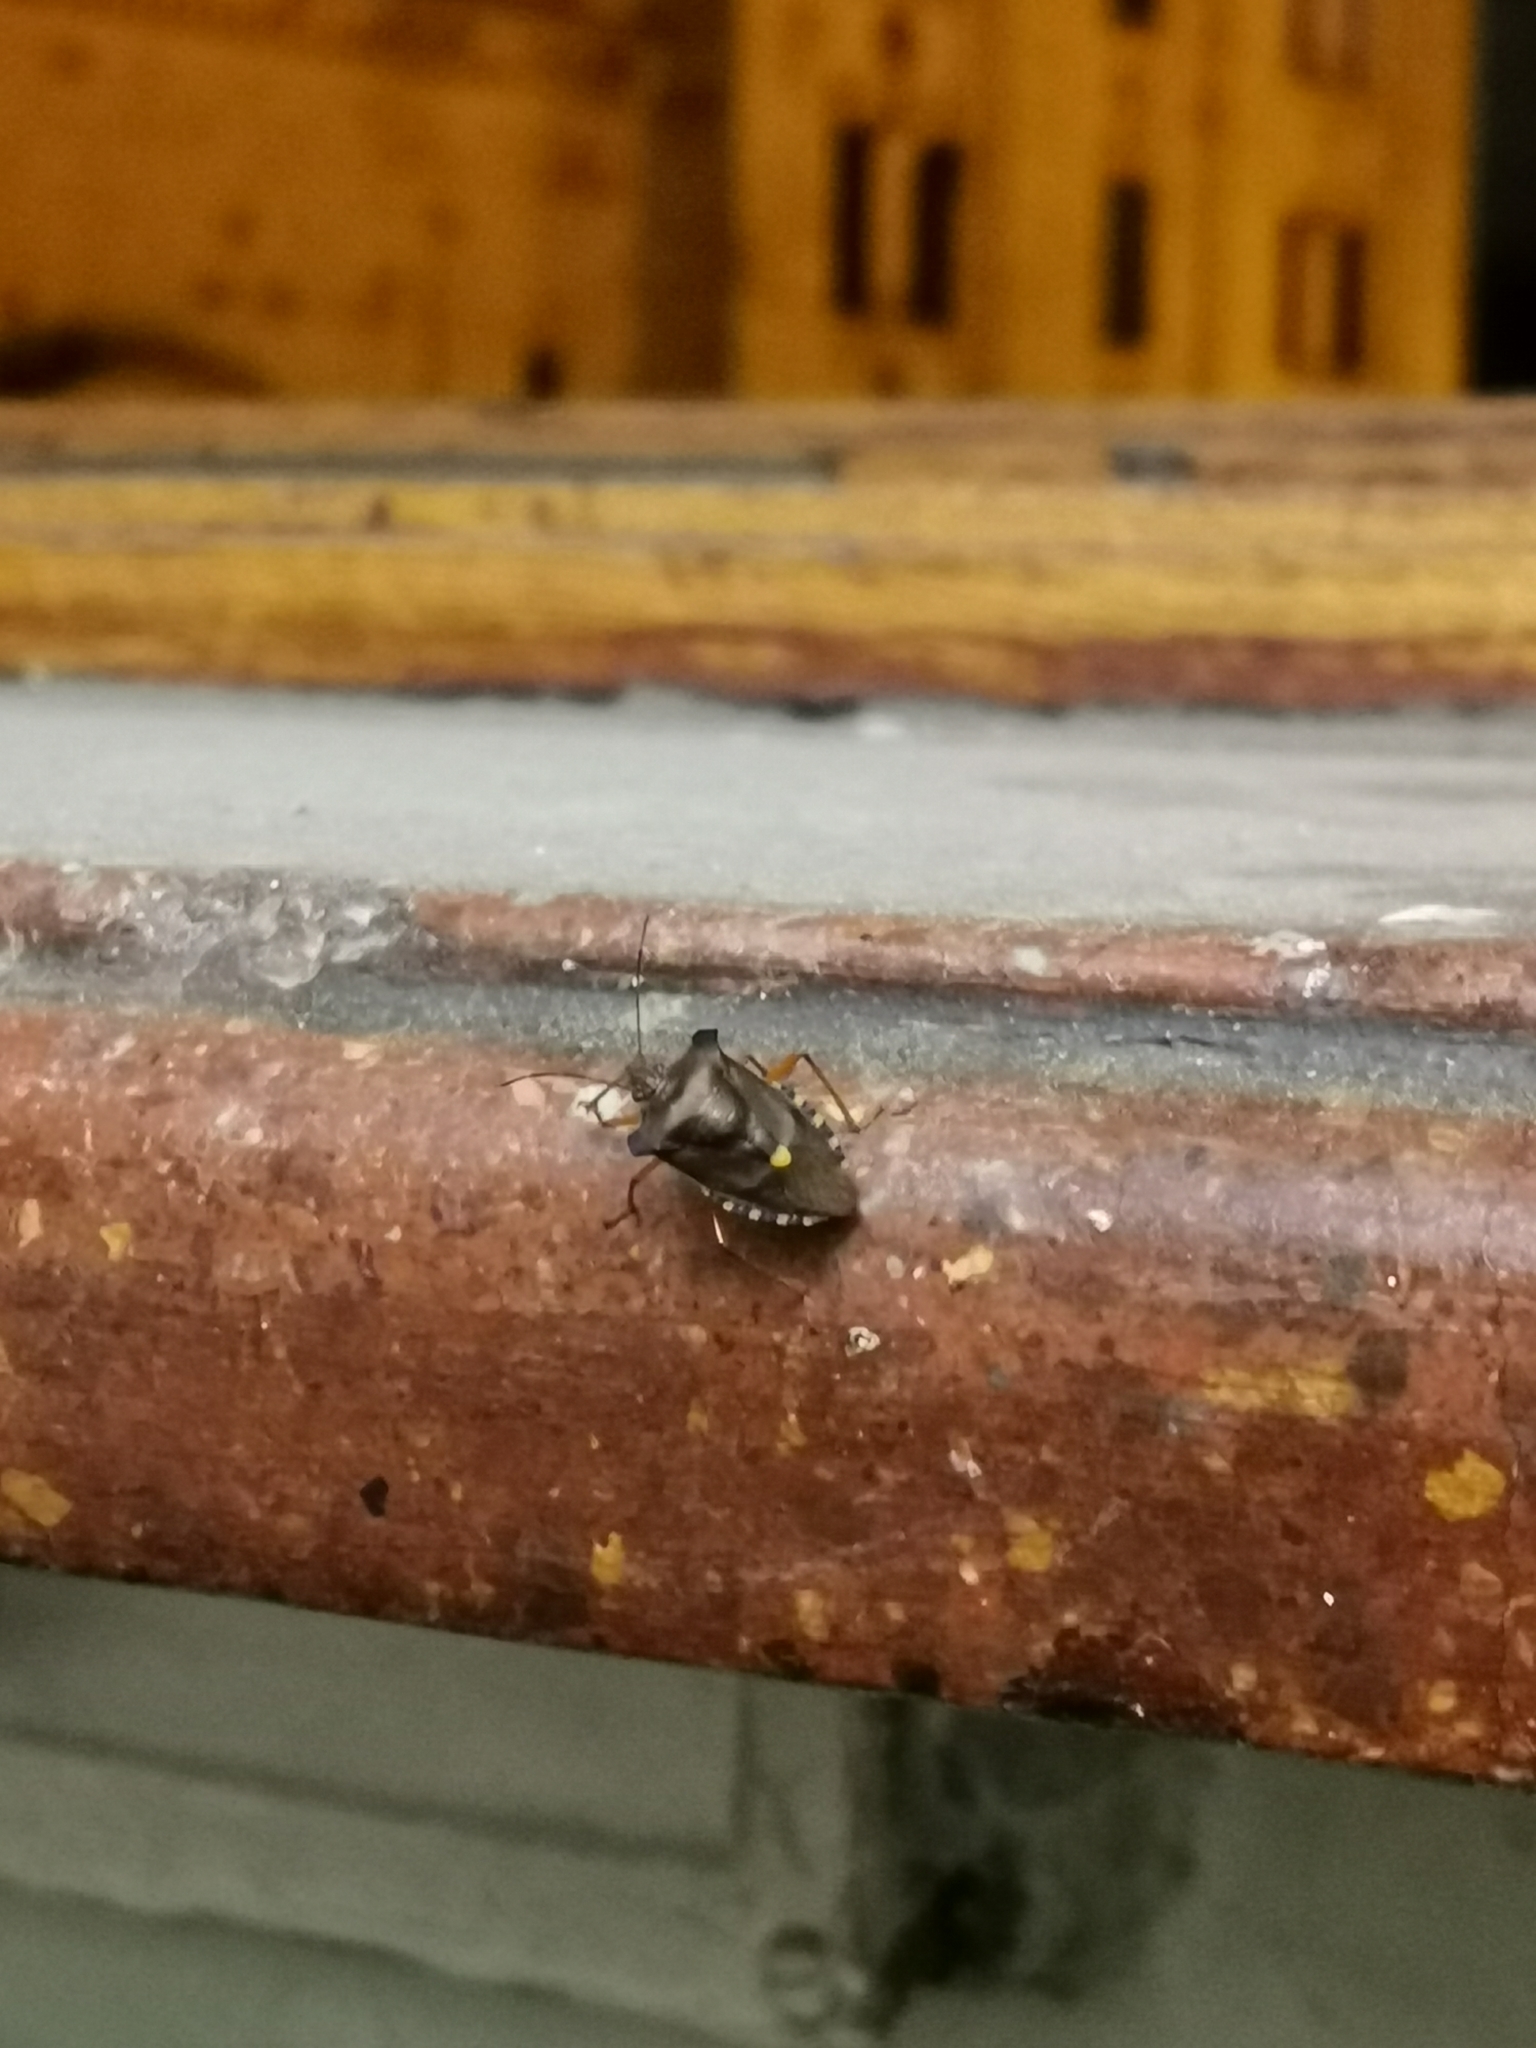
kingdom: Animalia
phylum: Arthropoda
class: Insecta
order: Hemiptera
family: Pentatomidae
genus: Pentatoma
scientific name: Pentatoma rufipes
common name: Forest bug
